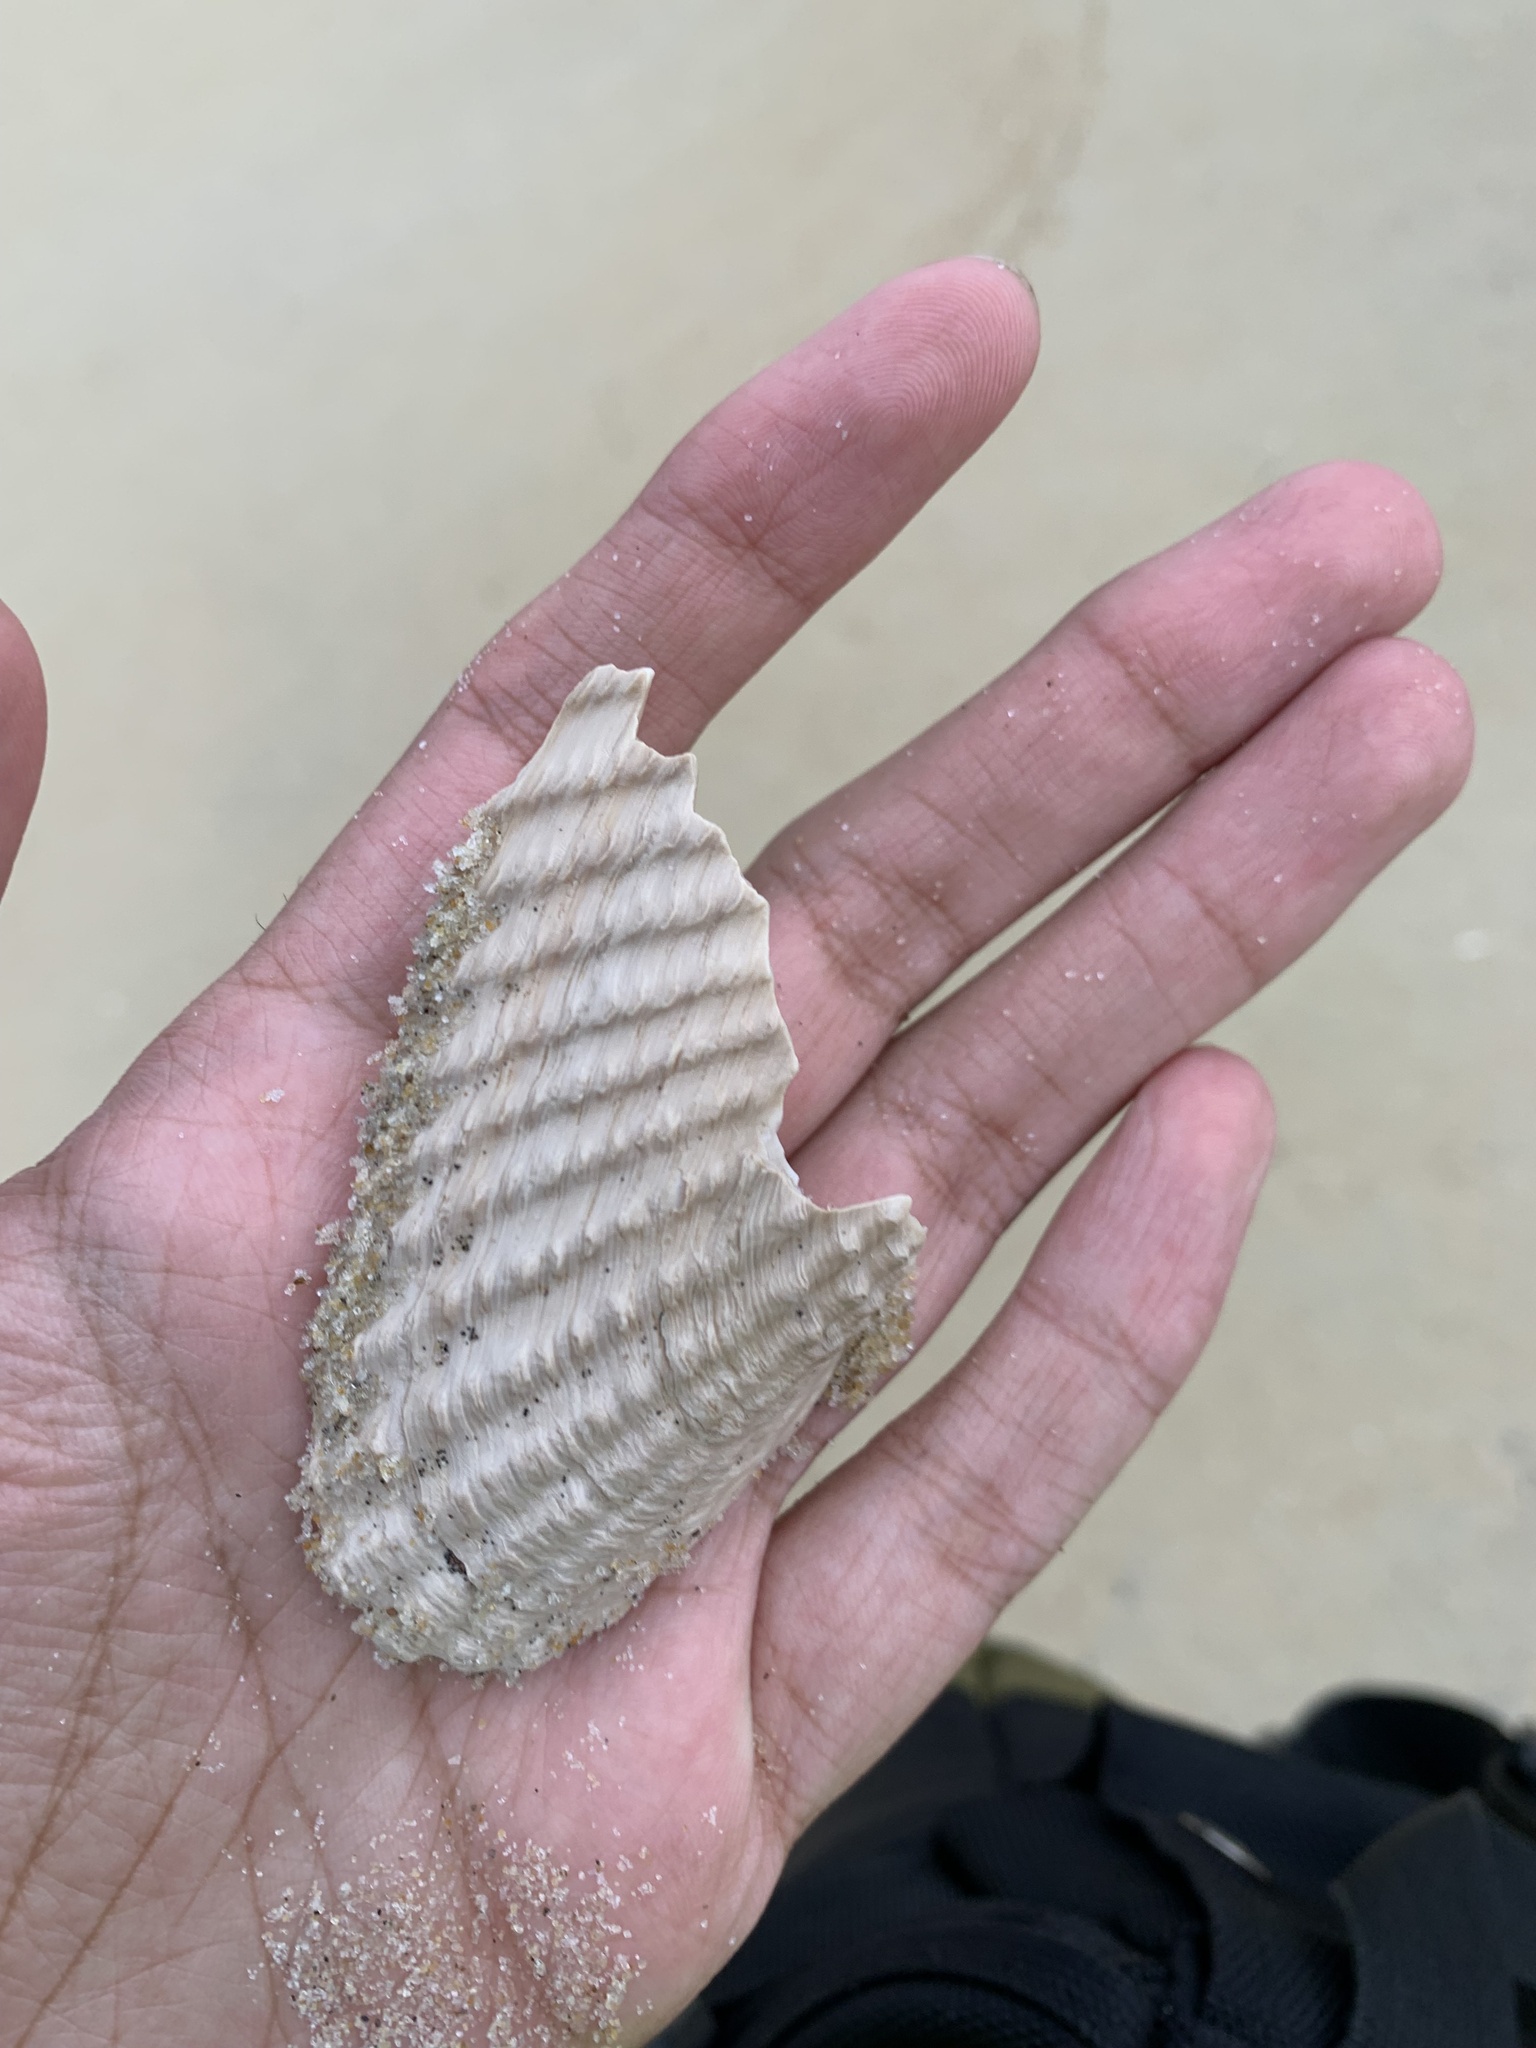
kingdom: Animalia
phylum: Mollusca
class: Bivalvia
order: Myida
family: Pholadidae
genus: Cyrtopleura
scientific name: Cyrtopleura costata
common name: Angel wing
